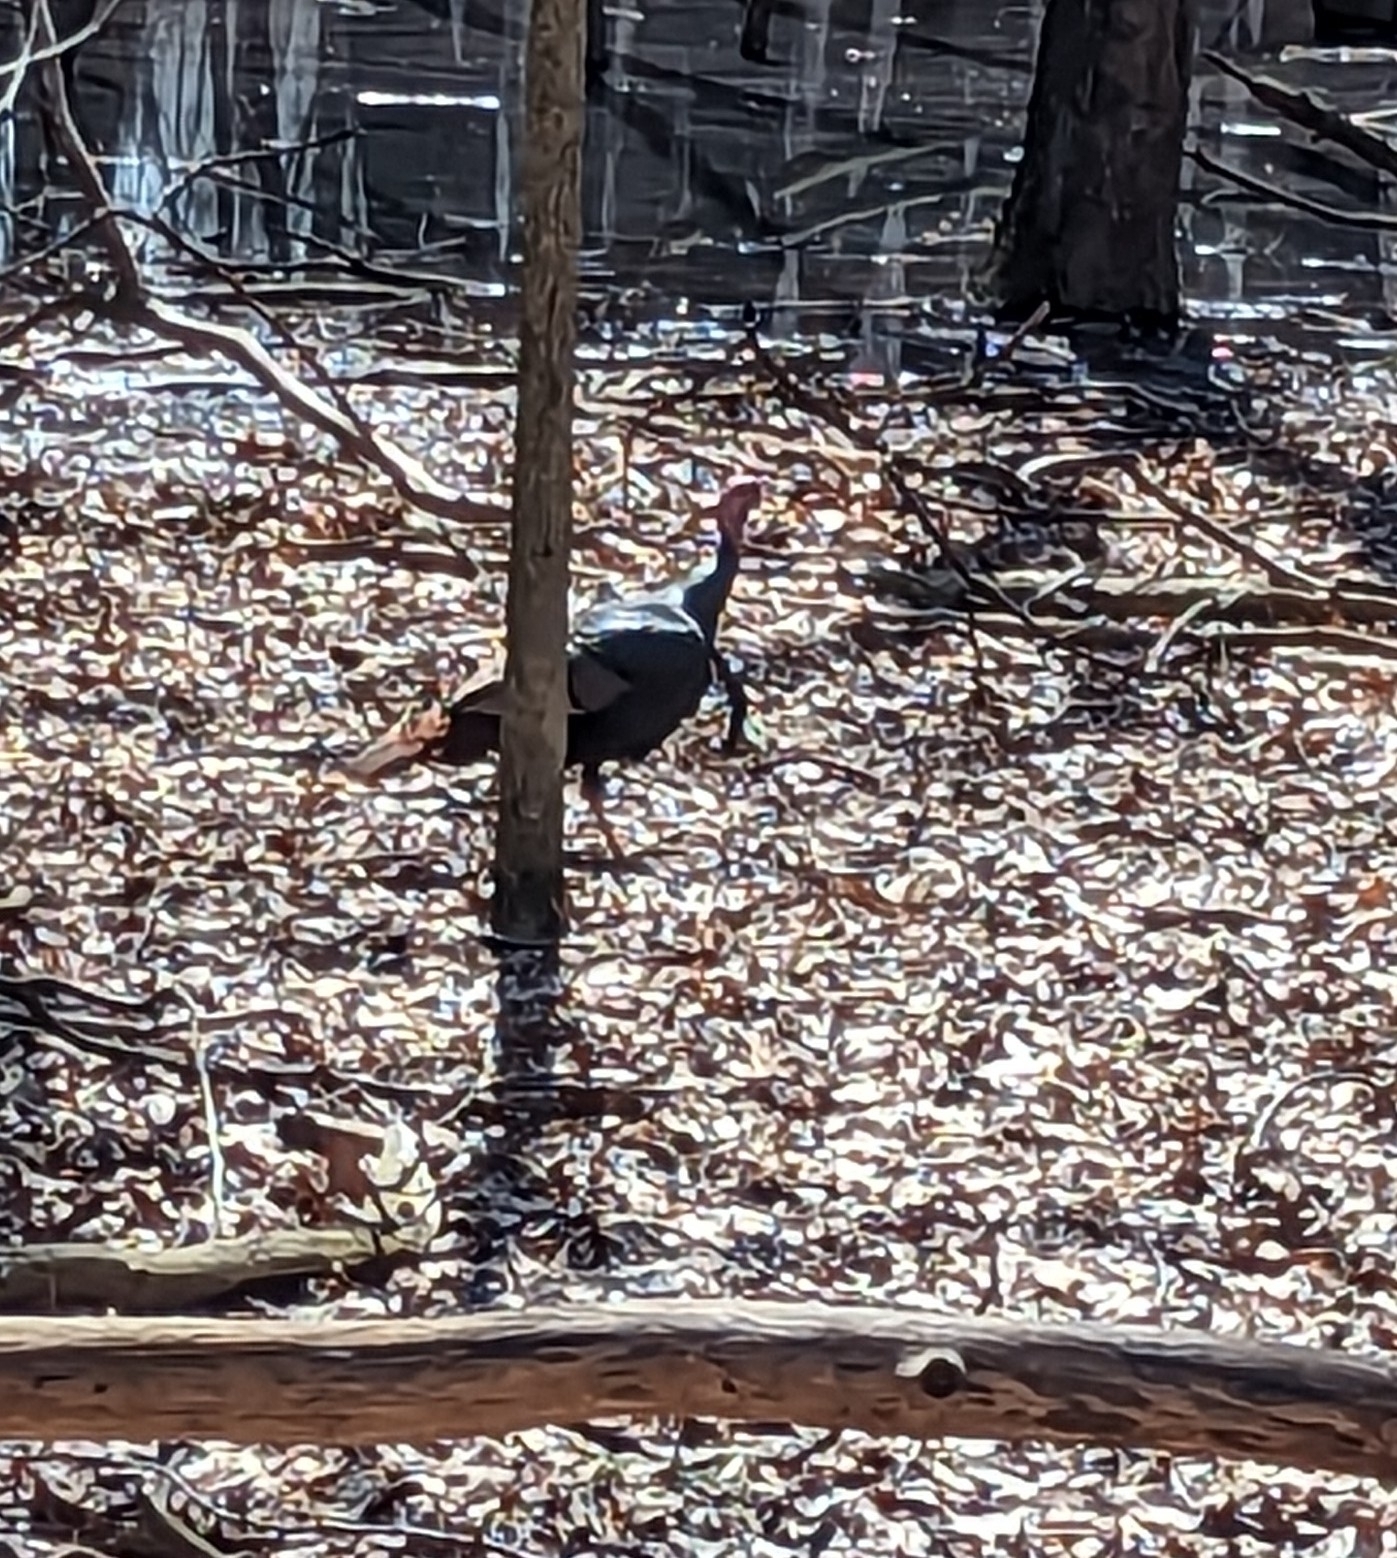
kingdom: Animalia
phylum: Chordata
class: Aves
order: Galliformes
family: Phasianidae
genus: Meleagris
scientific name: Meleagris gallopavo
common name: Wild turkey
